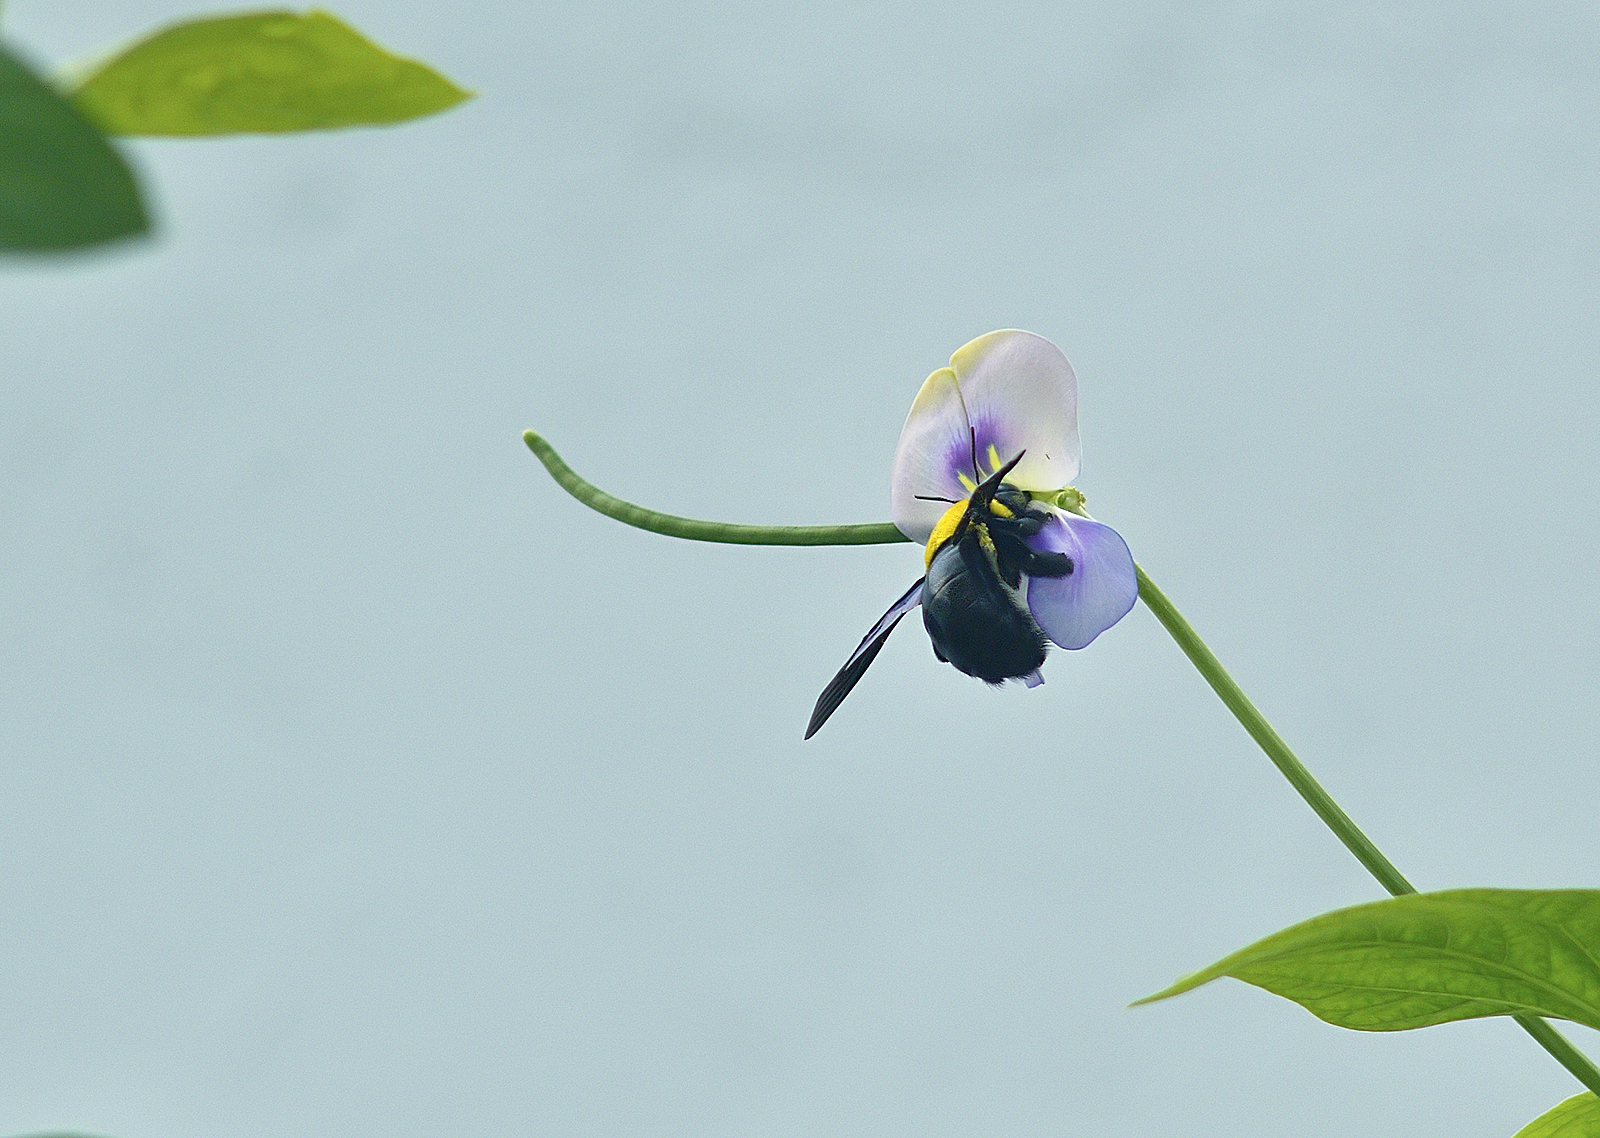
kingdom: Animalia
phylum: Arthropoda
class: Insecta
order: Hymenoptera
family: Apidae
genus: Xylocopa
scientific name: Xylocopa ruficornis
